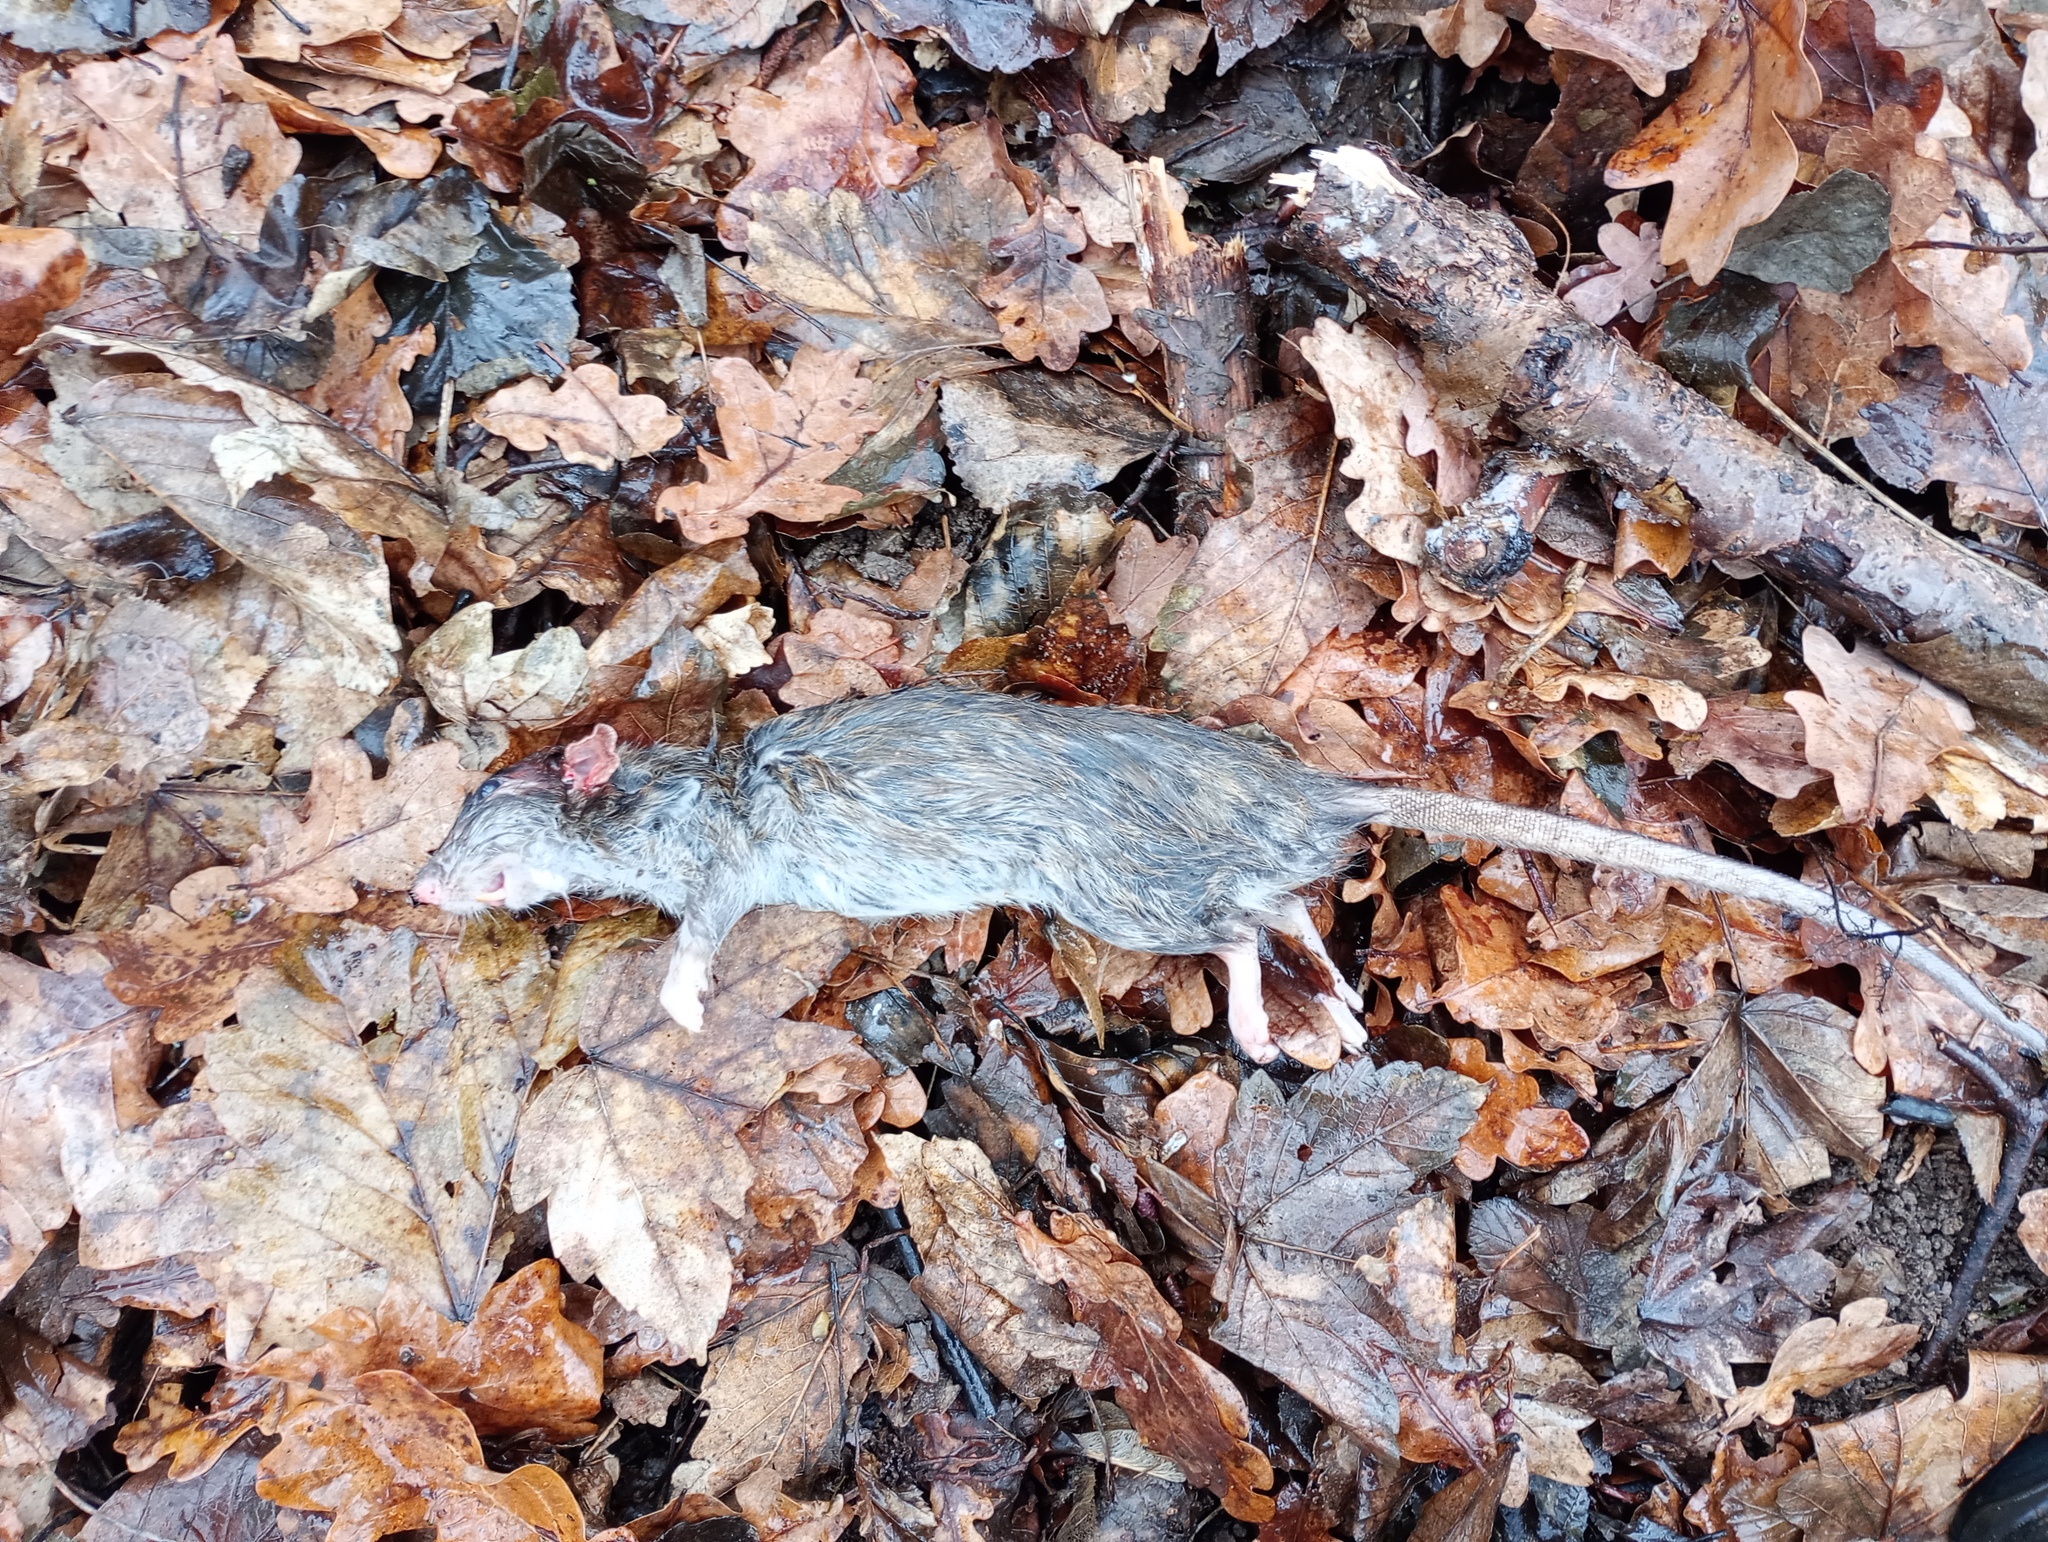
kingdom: Animalia
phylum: Chordata
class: Mammalia
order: Rodentia
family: Muridae
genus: Rattus
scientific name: Rattus norvegicus
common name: Brown rat
